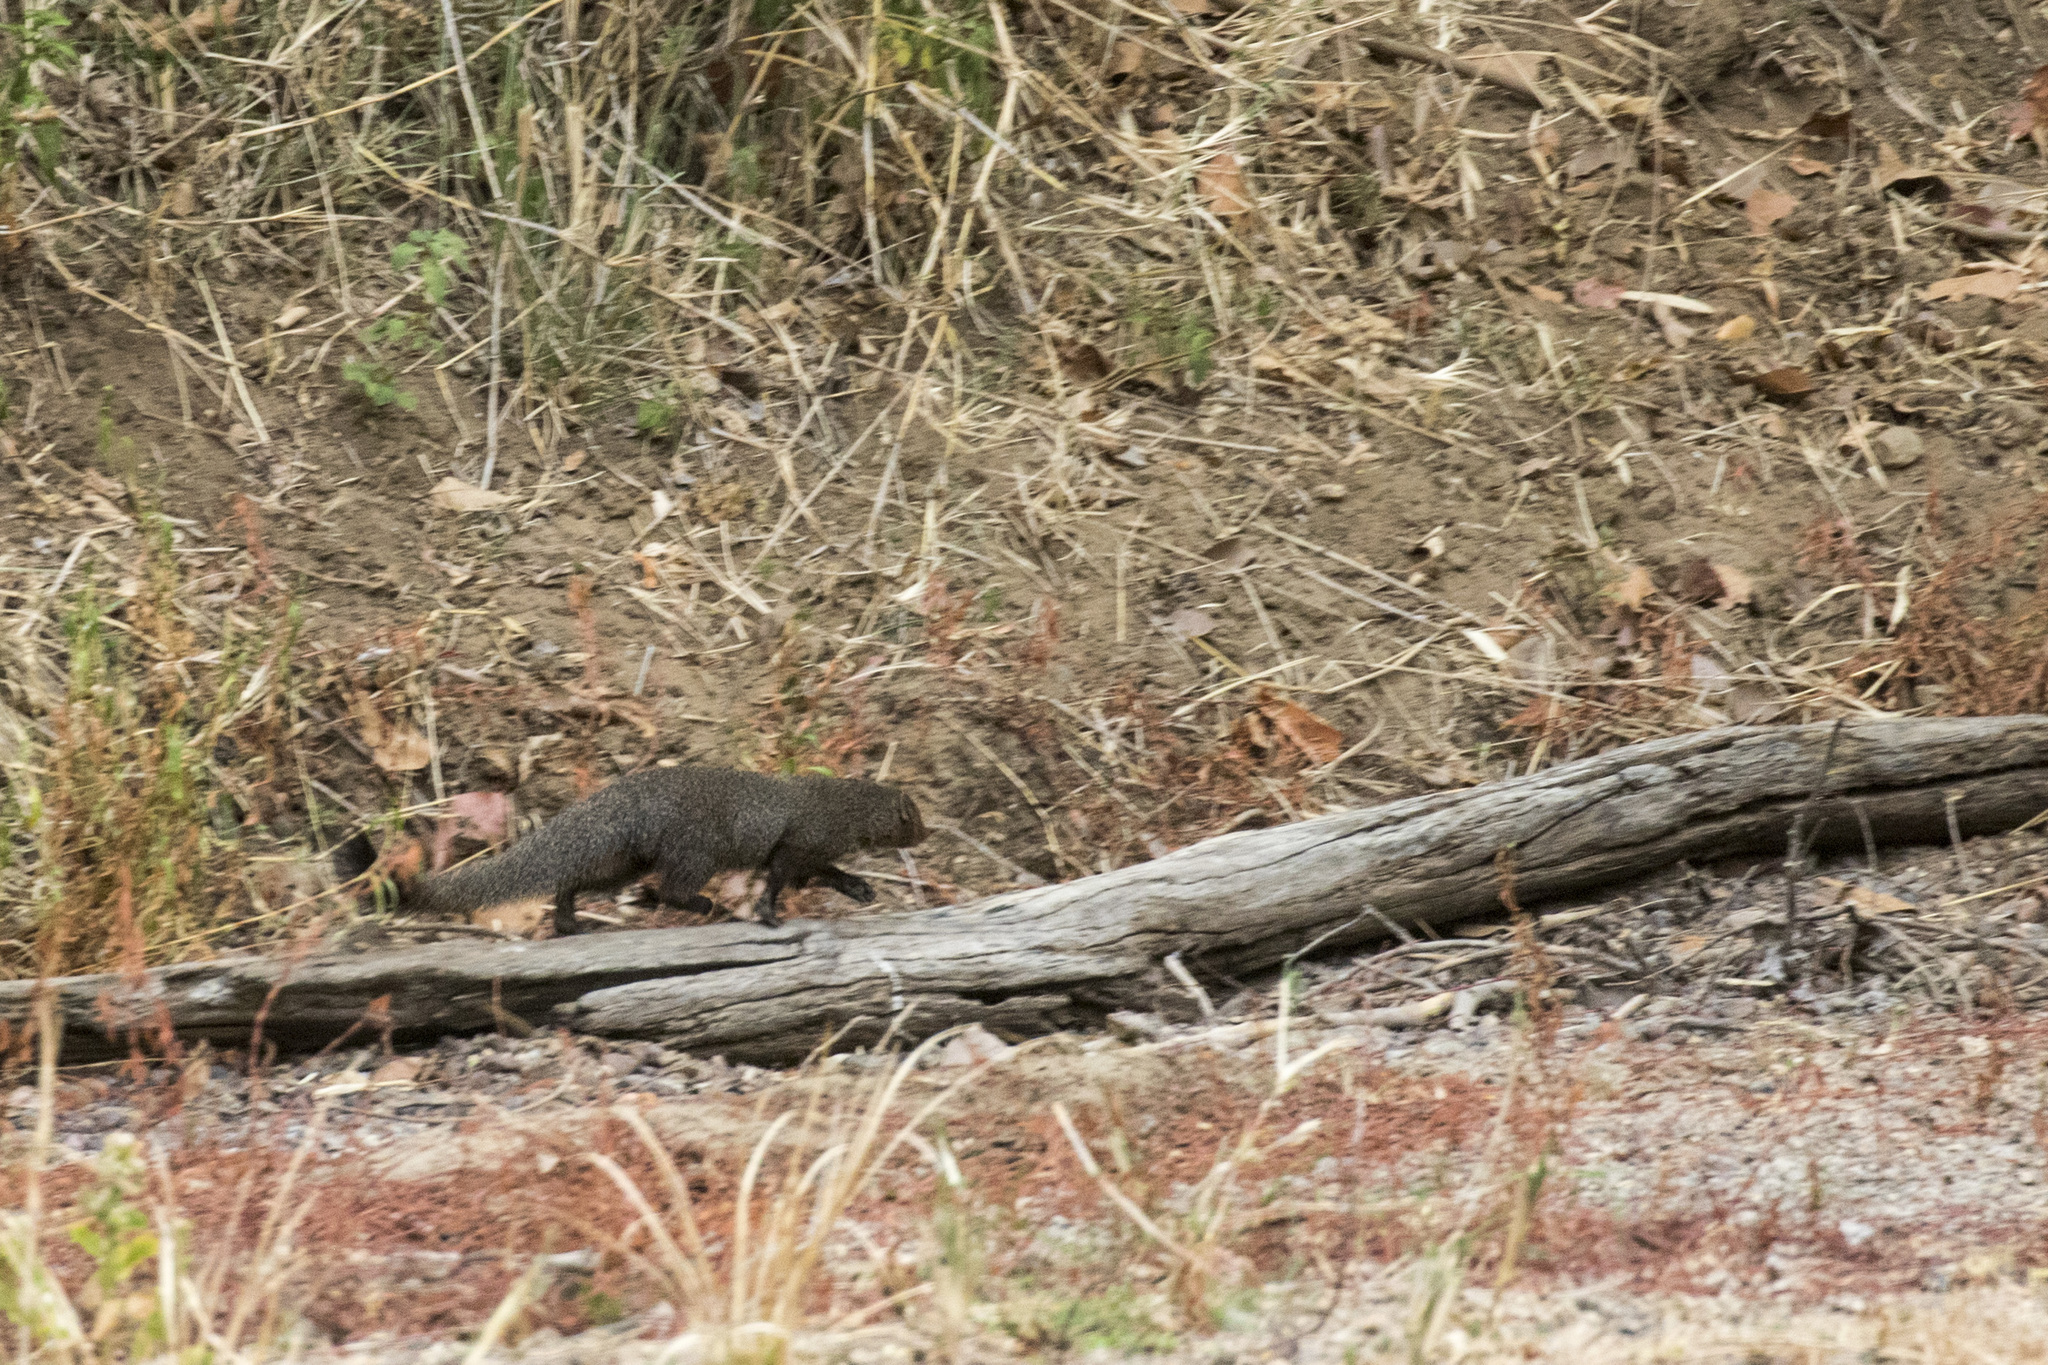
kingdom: Animalia
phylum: Chordata
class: Mammalia
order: Carnivora
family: Herpestidae
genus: Herpestes
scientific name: Herpestes smithii
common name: Ruddy mongoose
